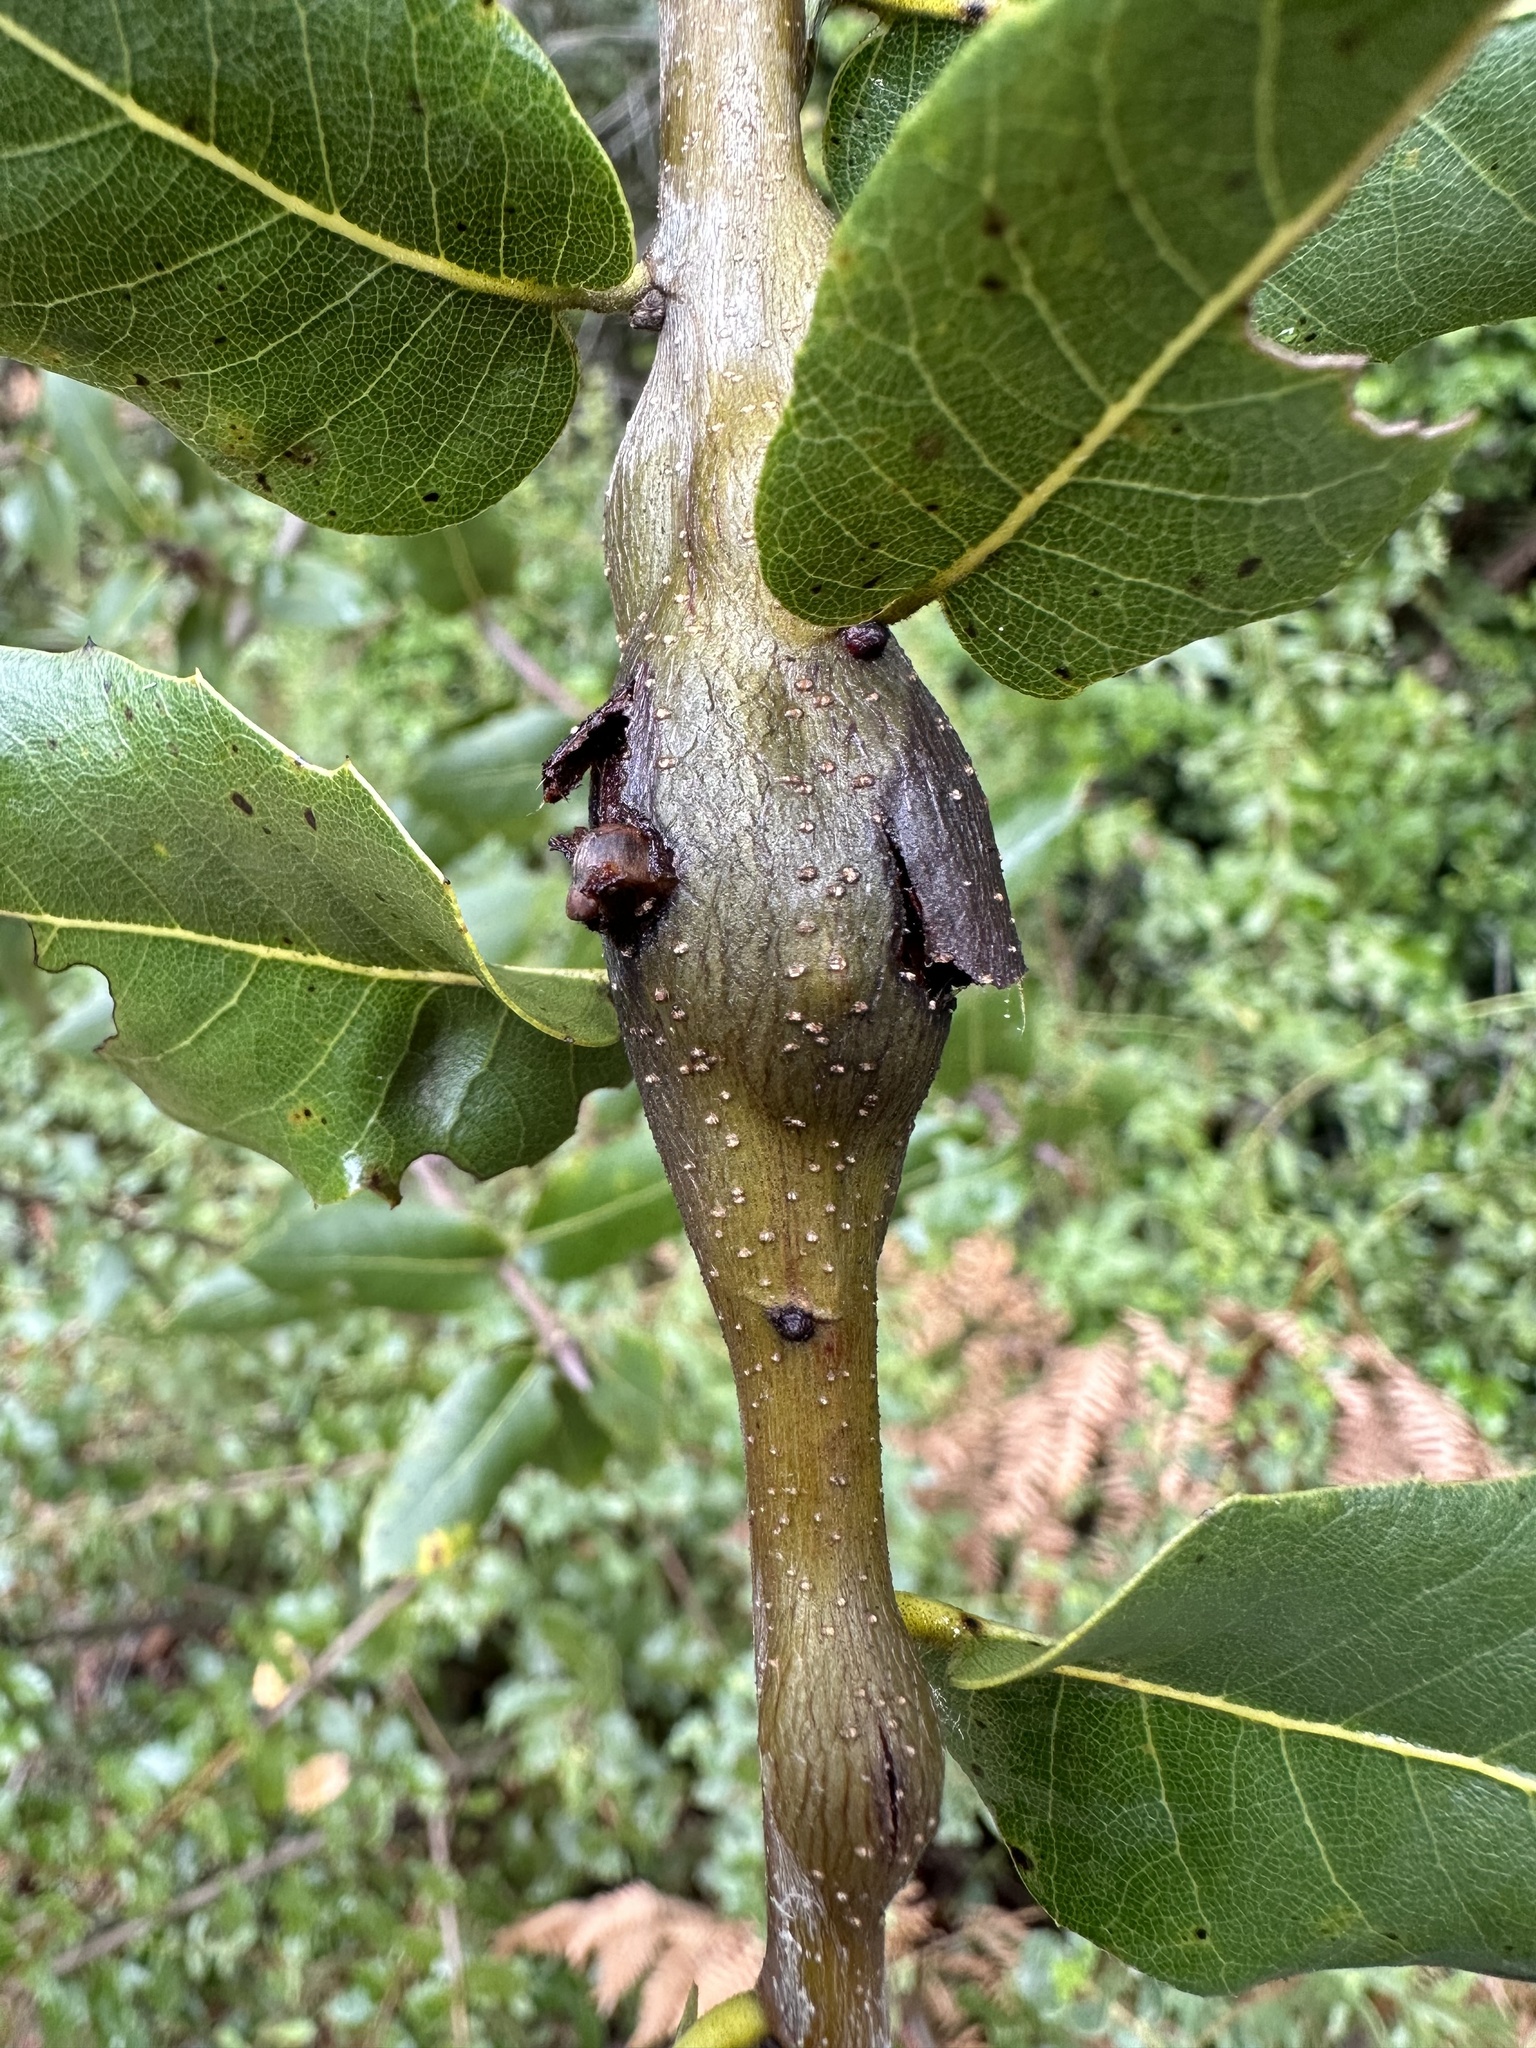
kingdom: Animalia
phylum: Arthropoda
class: Insecta
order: Hymenoptera
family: Cynipidae
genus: Callirhytis
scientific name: Callirhytis
